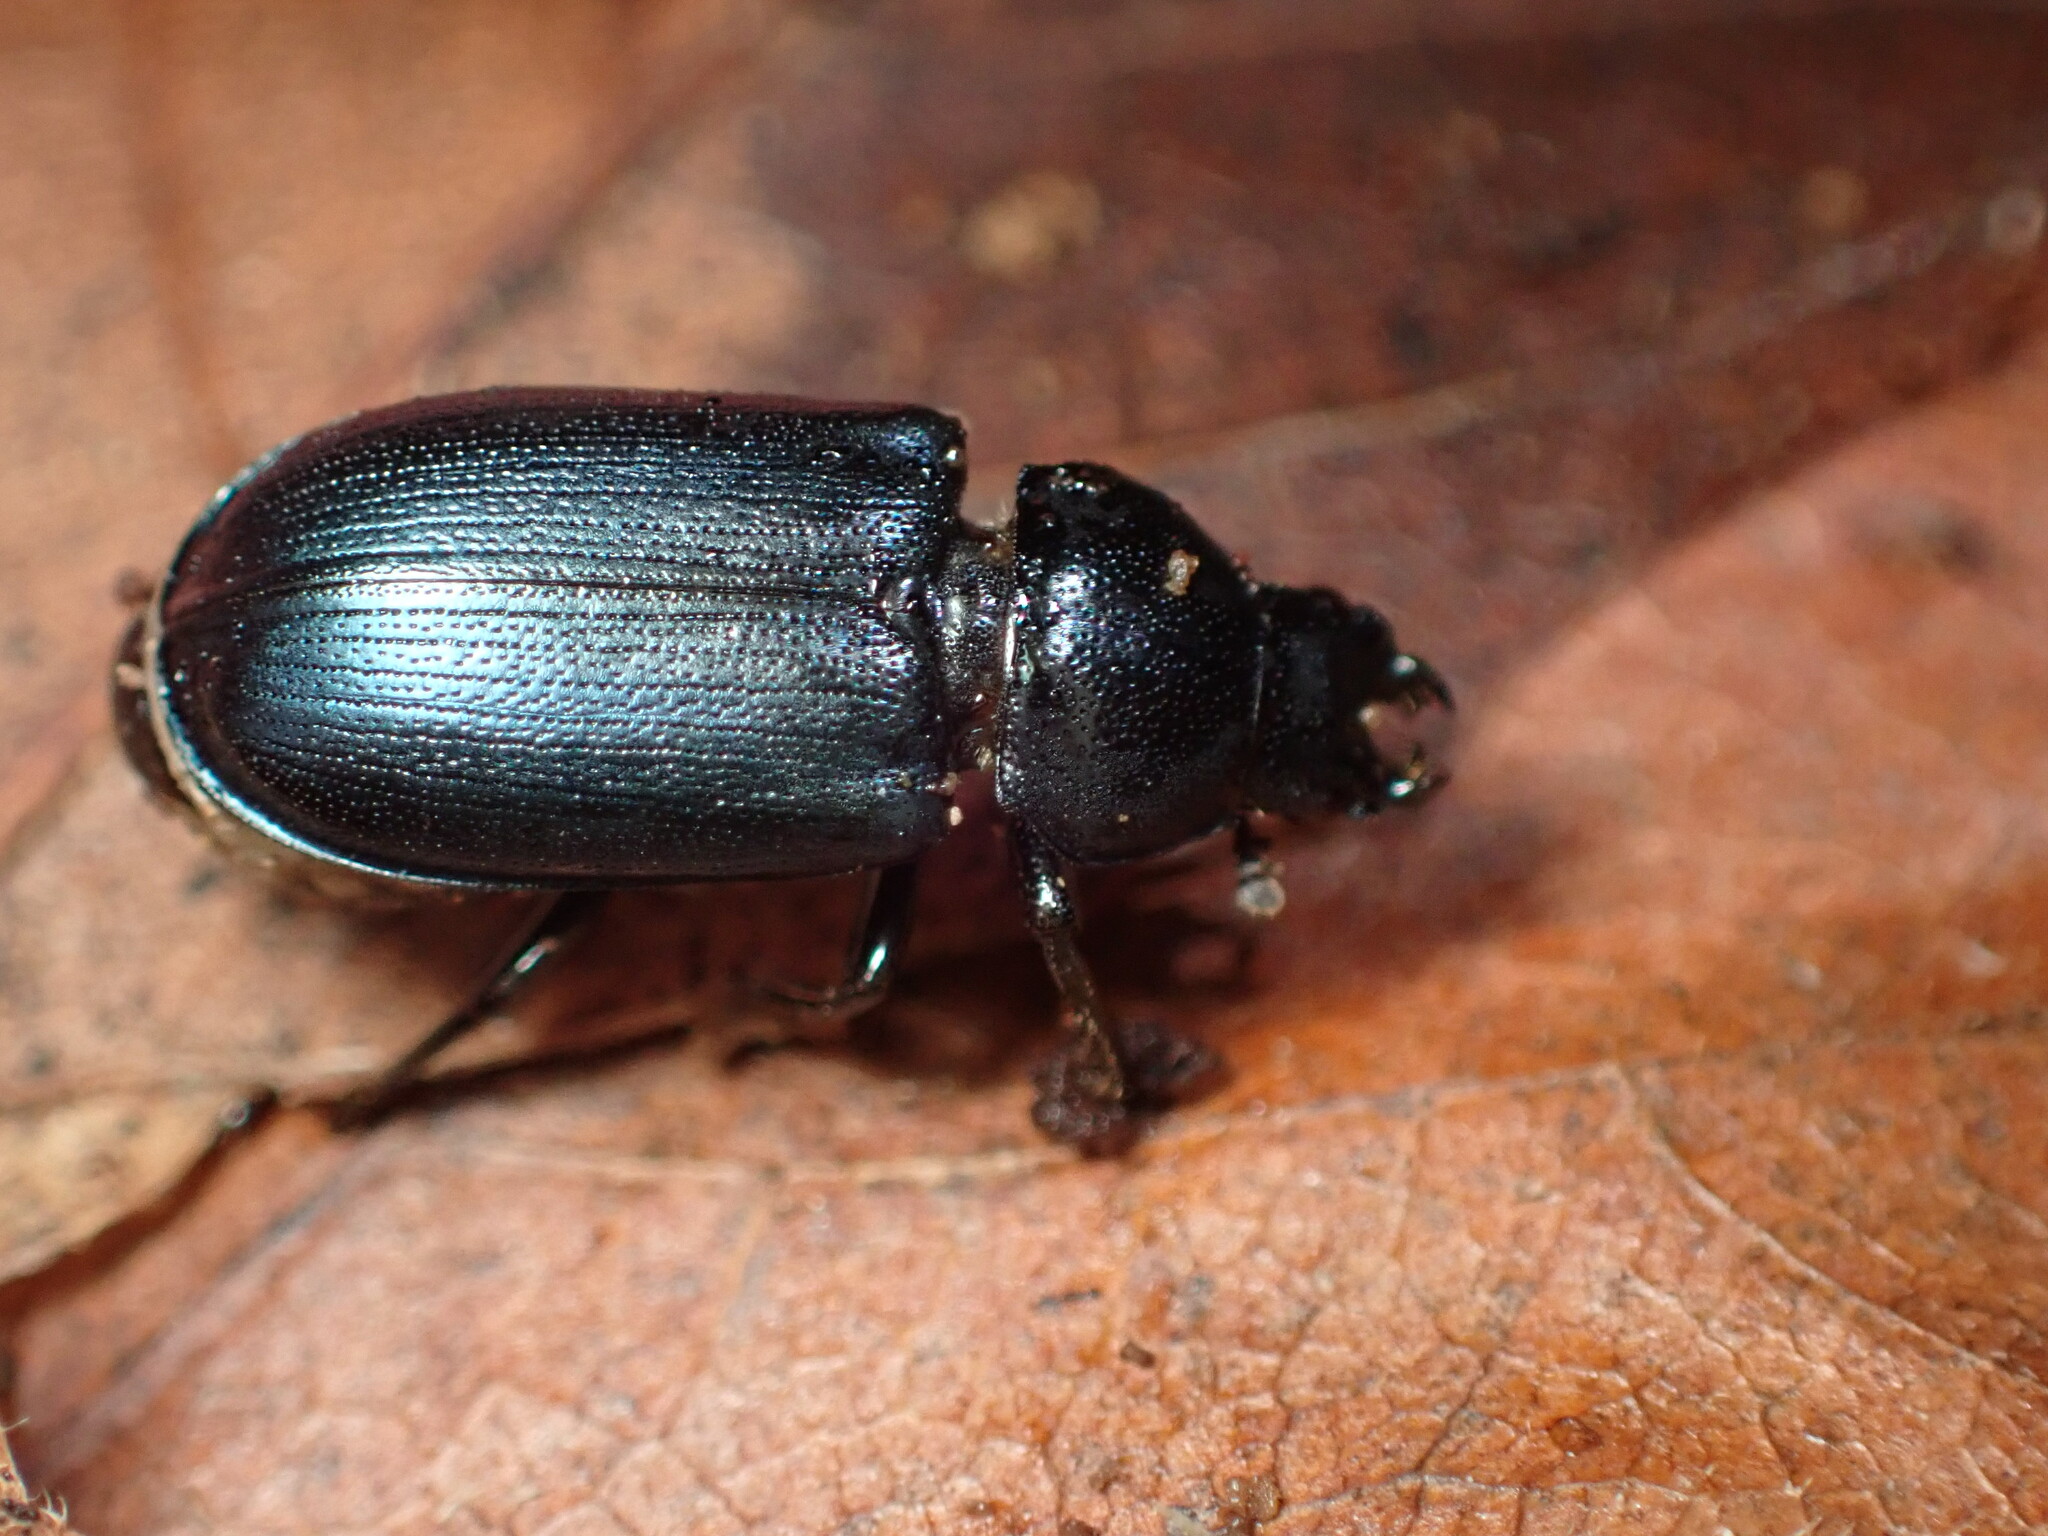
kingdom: Animalia
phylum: Arthropoda
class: Insecta
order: Coleoptera
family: Lucanidae
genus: Platycerus
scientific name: Platycerus oregonensis
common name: Oregon stag beetle
